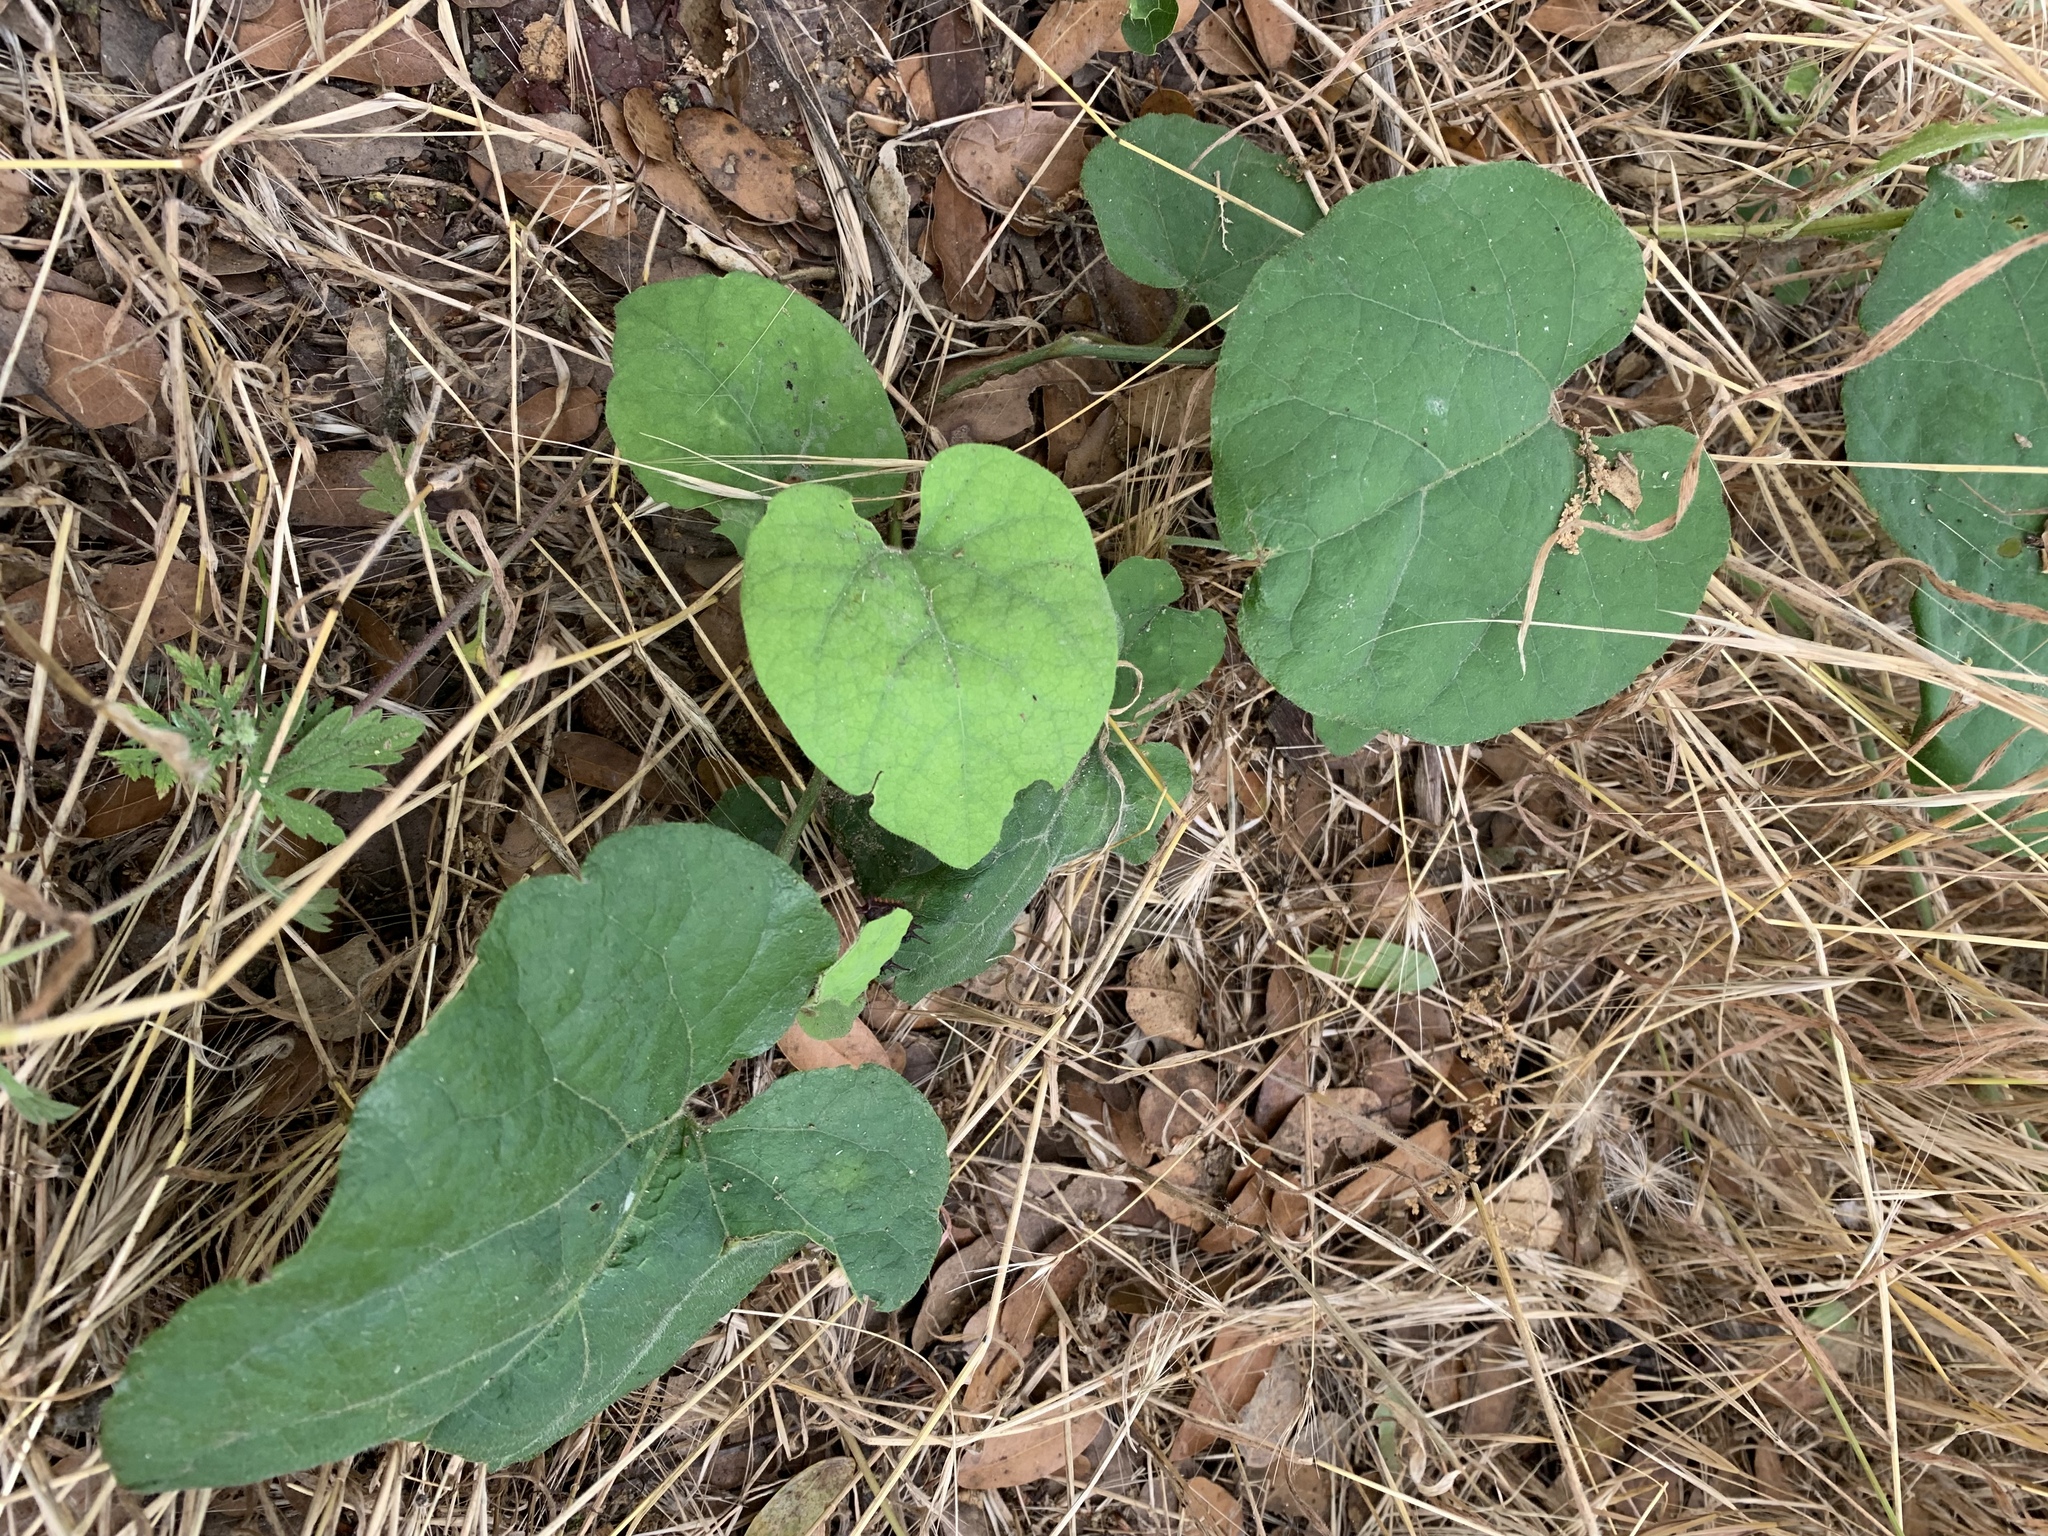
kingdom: Plantae
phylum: Tracheophyta
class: Magnoliopsida
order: Piperales
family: Aristolochiaceae
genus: Isotrema
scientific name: Isotrema californicum
